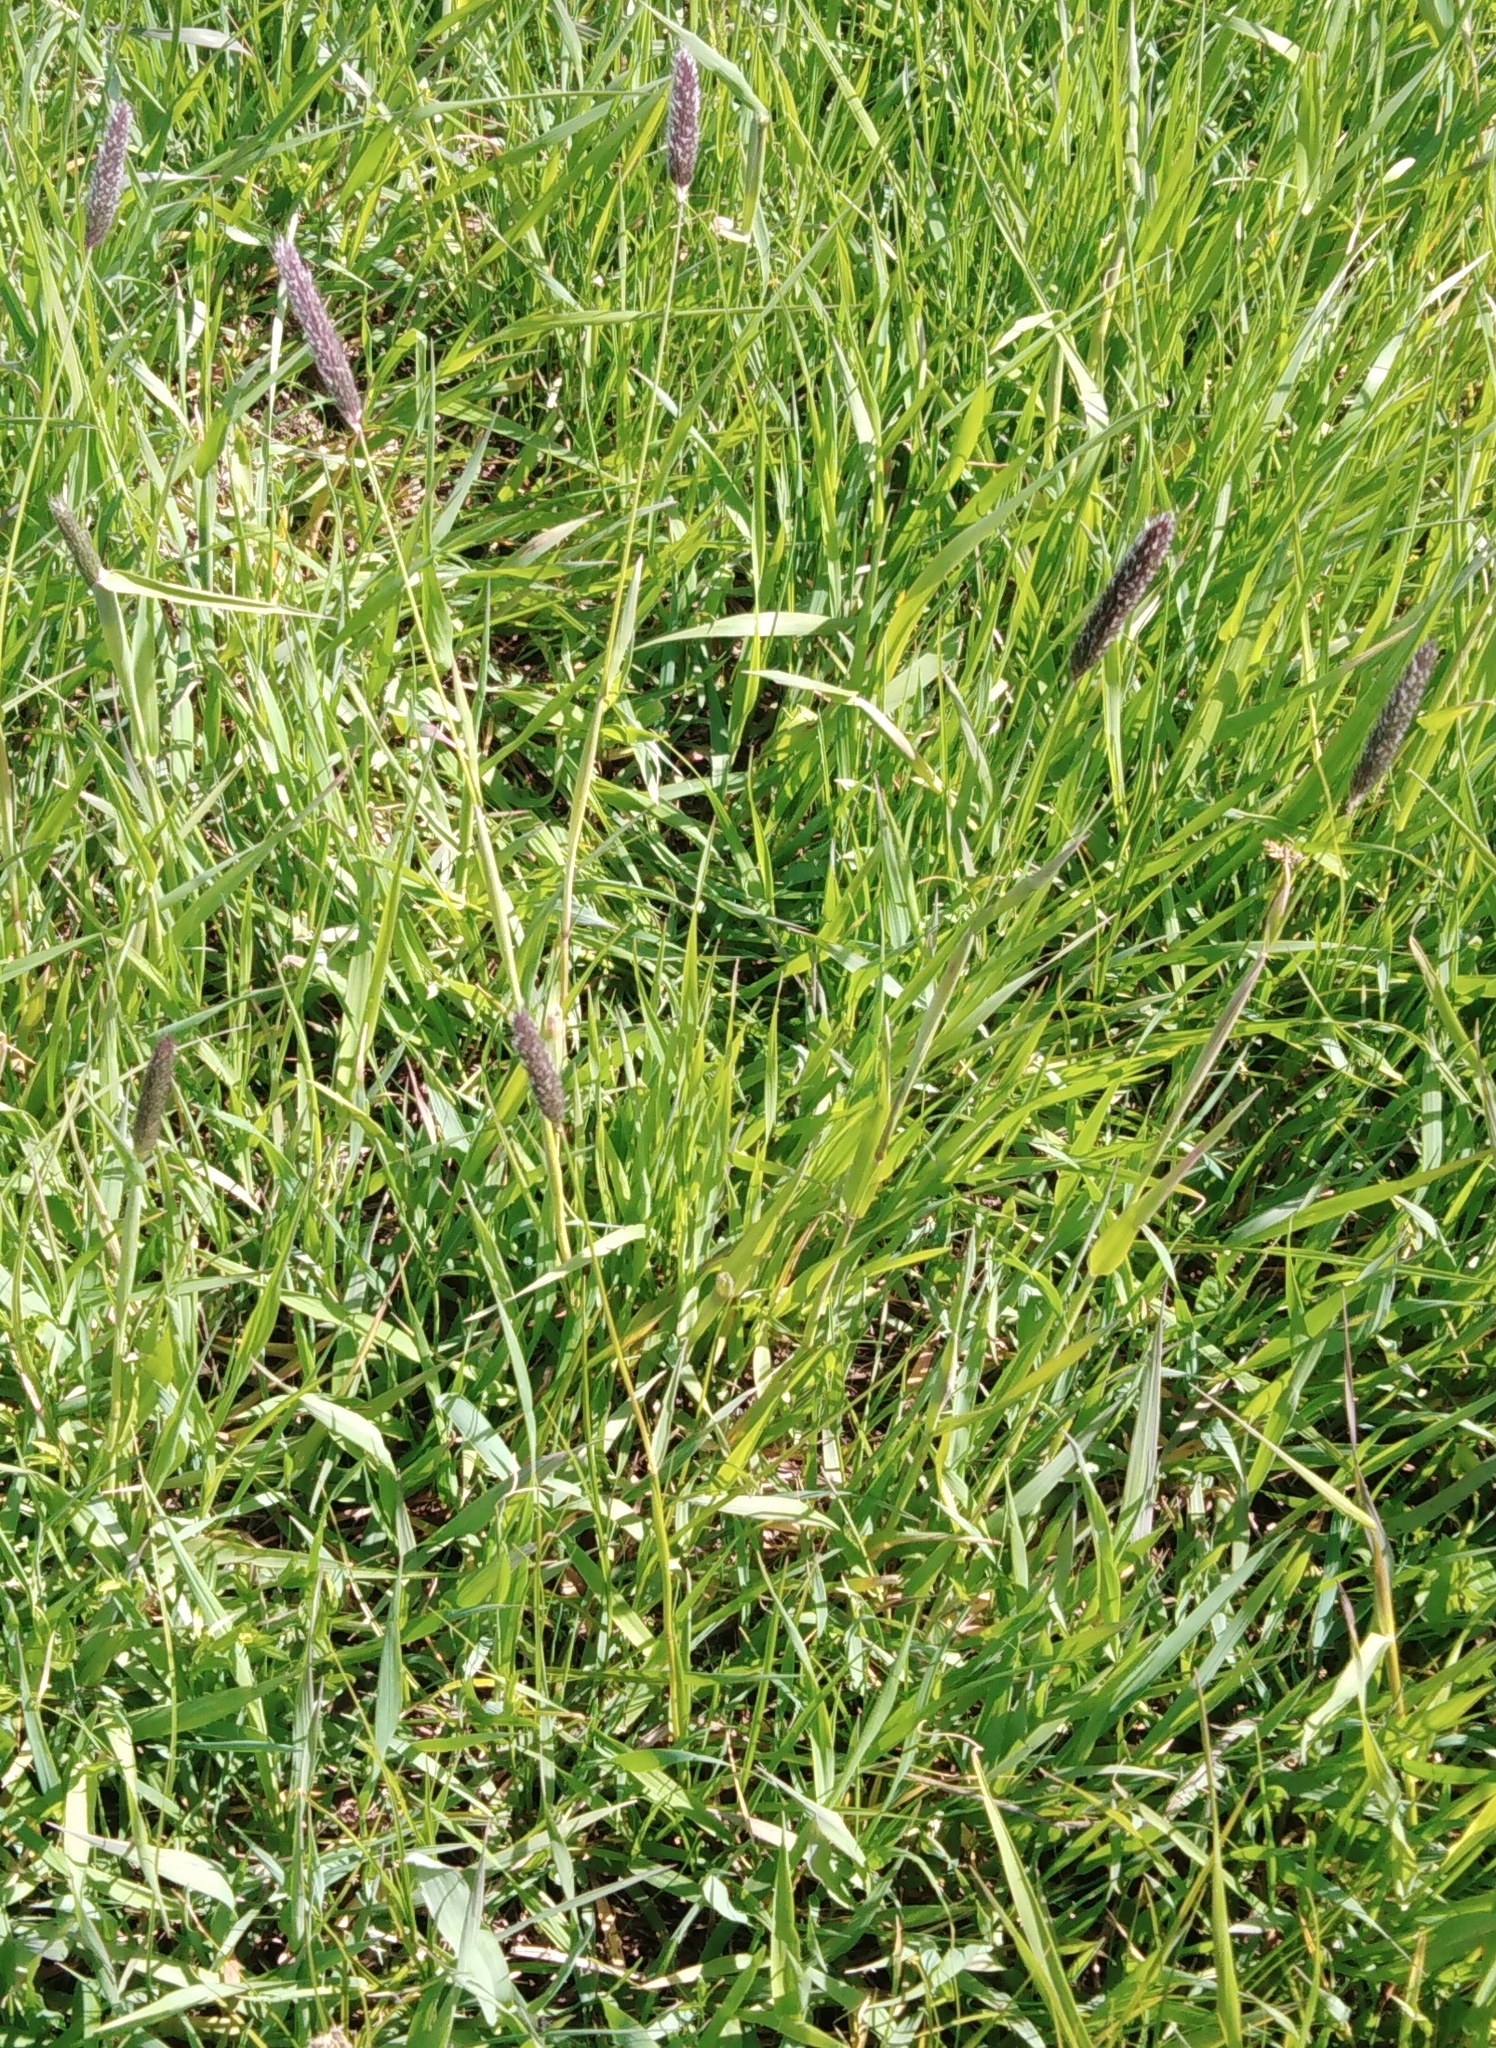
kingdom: Plantae
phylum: Tracheophyta
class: Liliopsida
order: Poales
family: Poaceae
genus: Alopecurus
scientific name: Alopecurus pratensis
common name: Meadow foxtail
